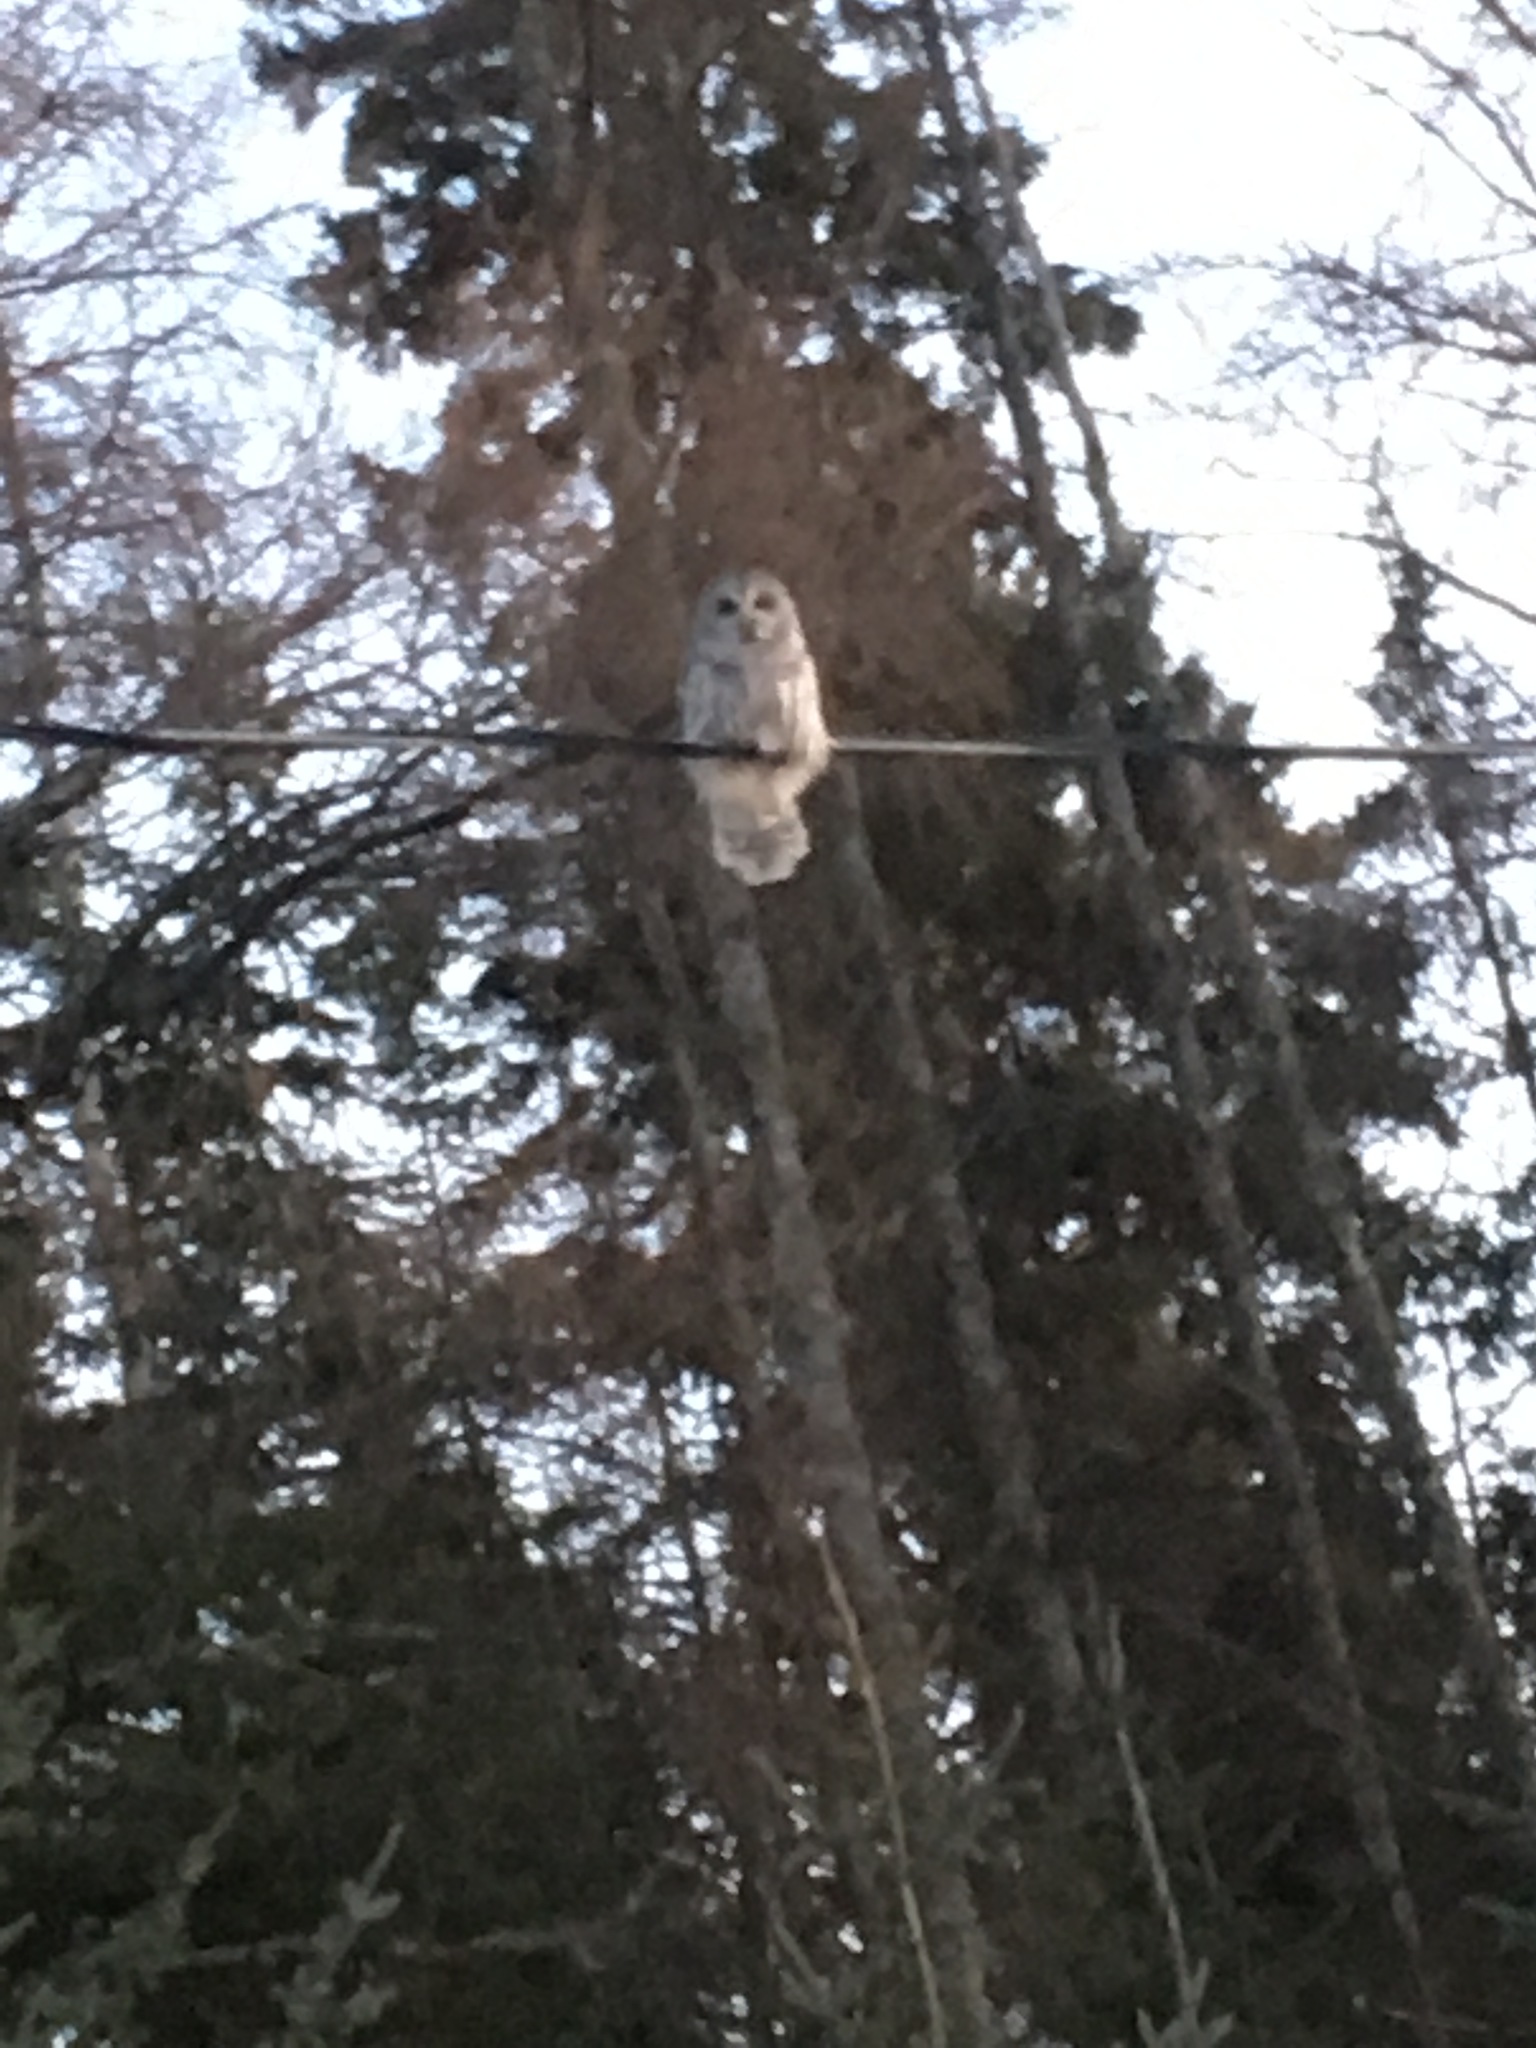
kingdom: Animalia
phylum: Chordata
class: Aves
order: Strigiformes
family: Strigidae
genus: Strix
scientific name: Strix varia
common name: Barred owl
